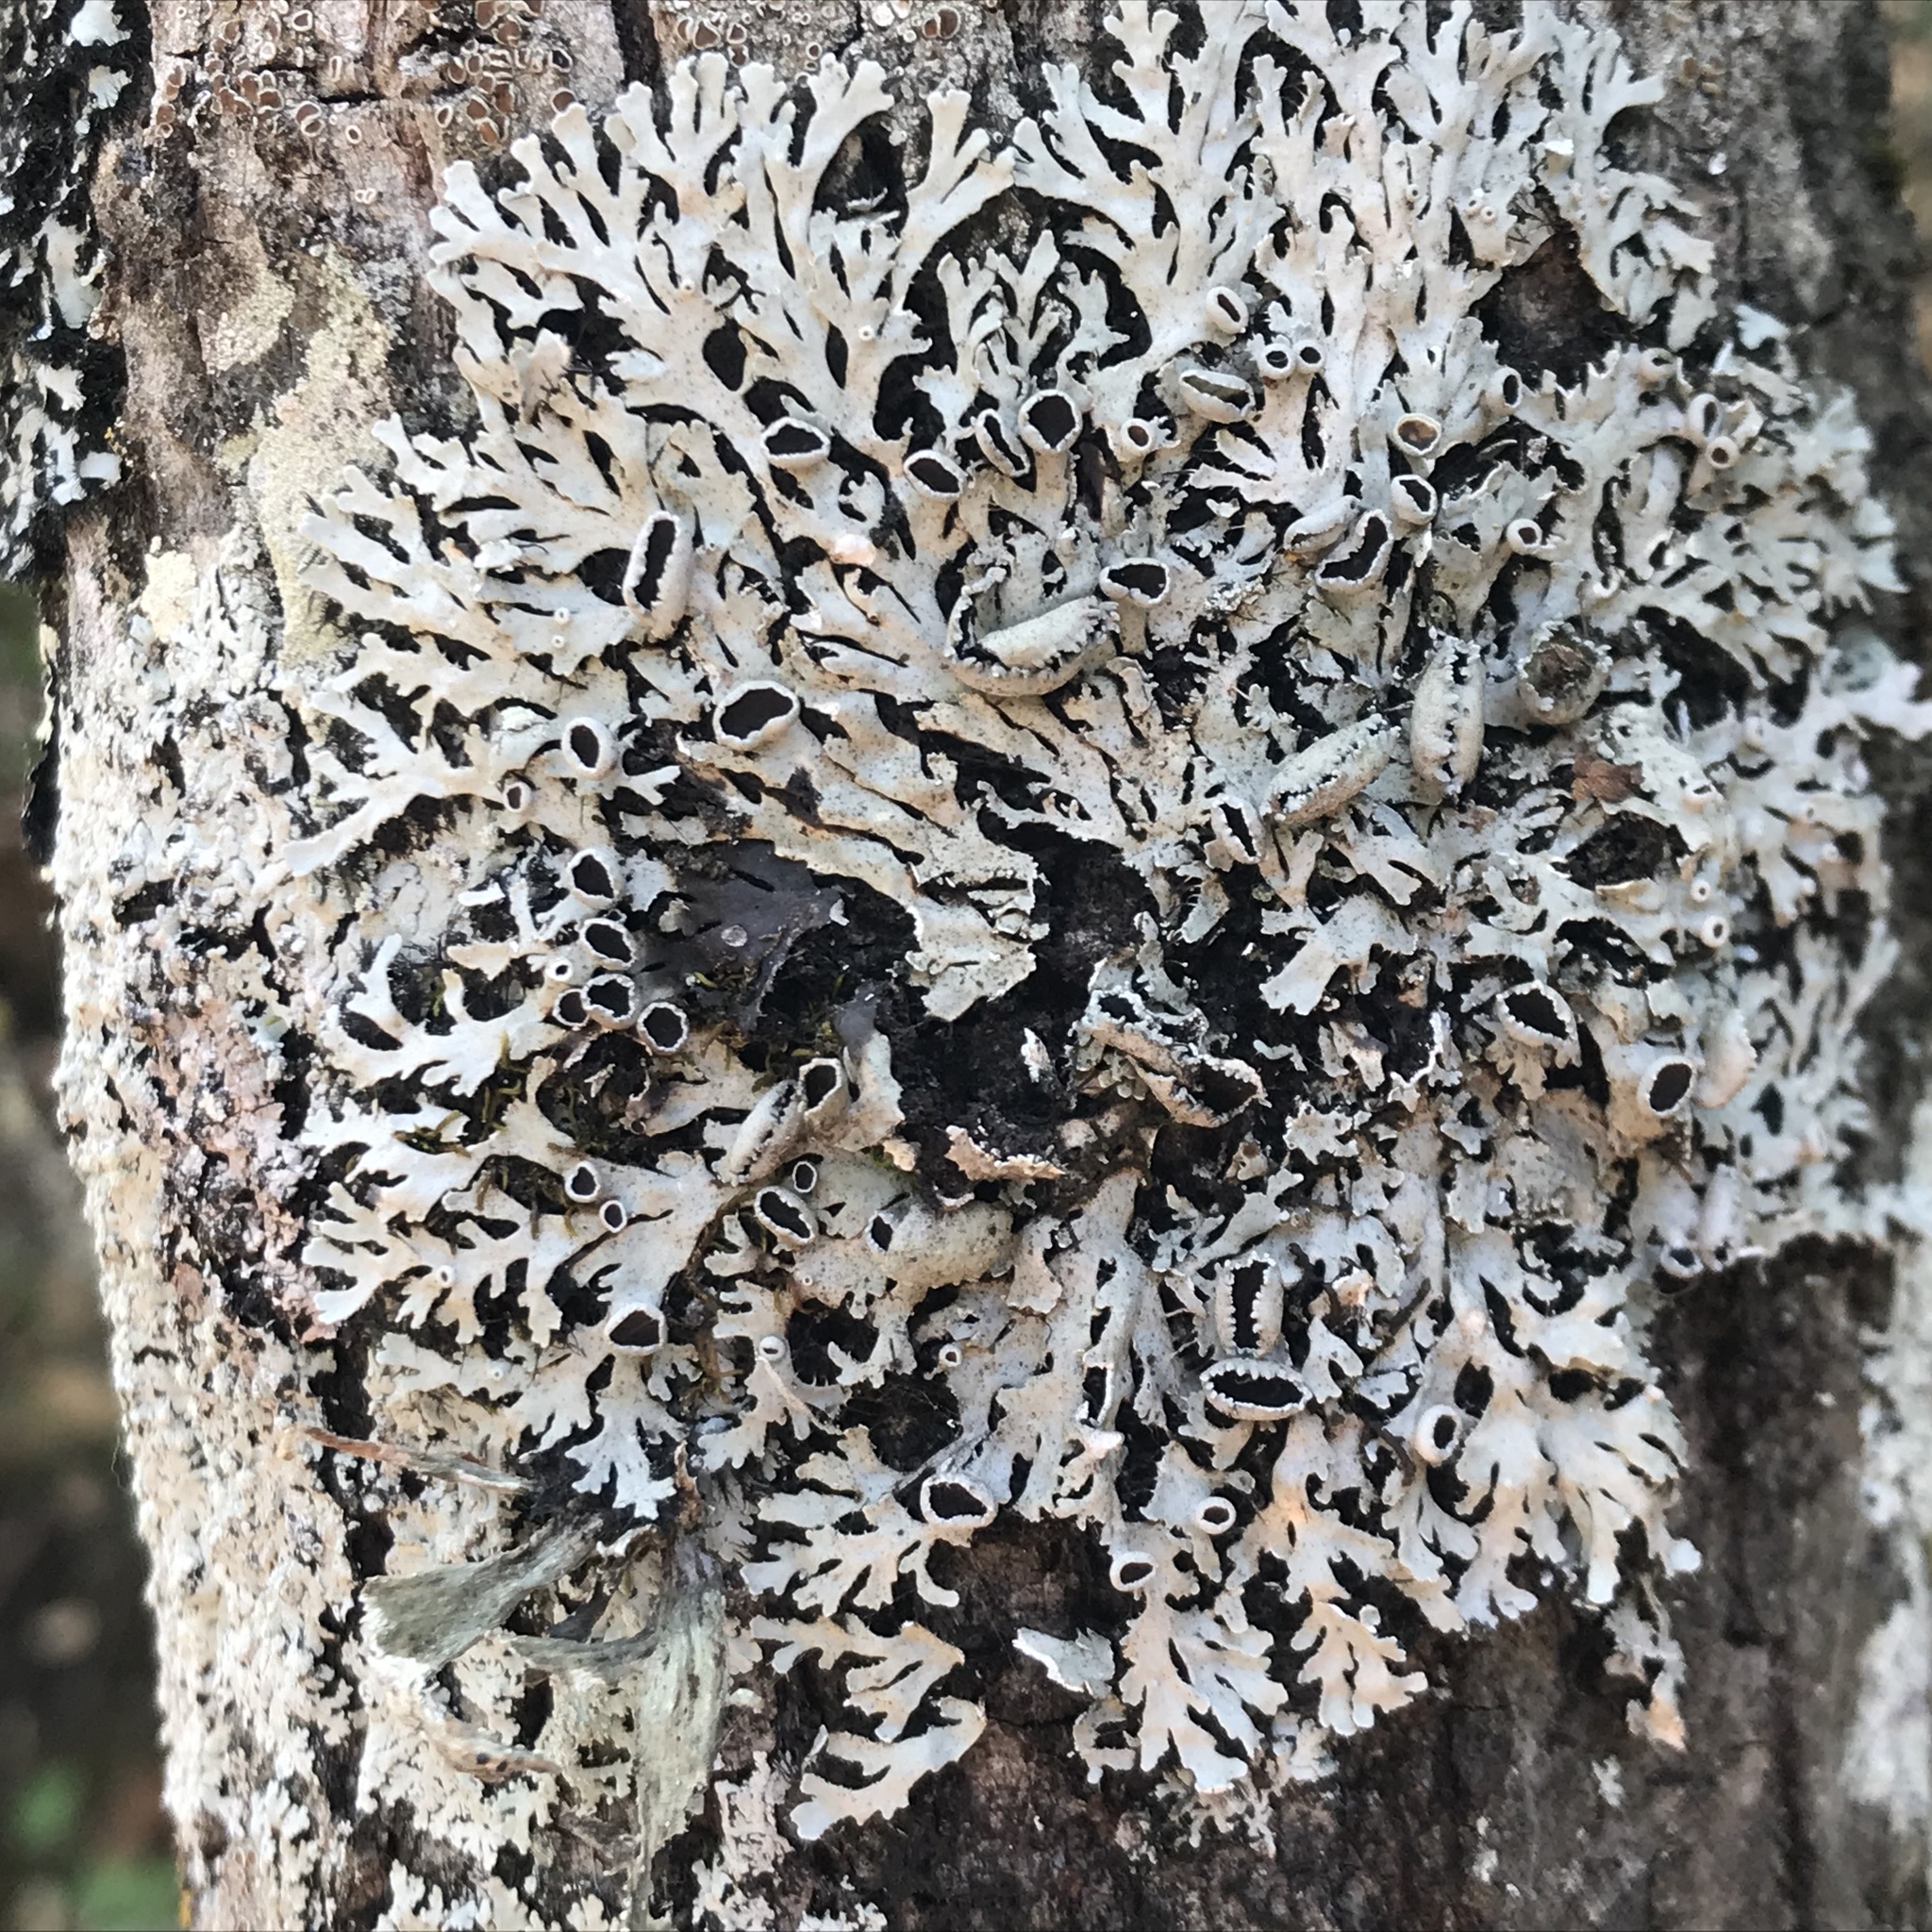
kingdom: Fungi
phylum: Ascomycota
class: Lecanoromycetes
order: Caliciales
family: Physciaceae
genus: Heterodermia
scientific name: Heterodermia diademata
